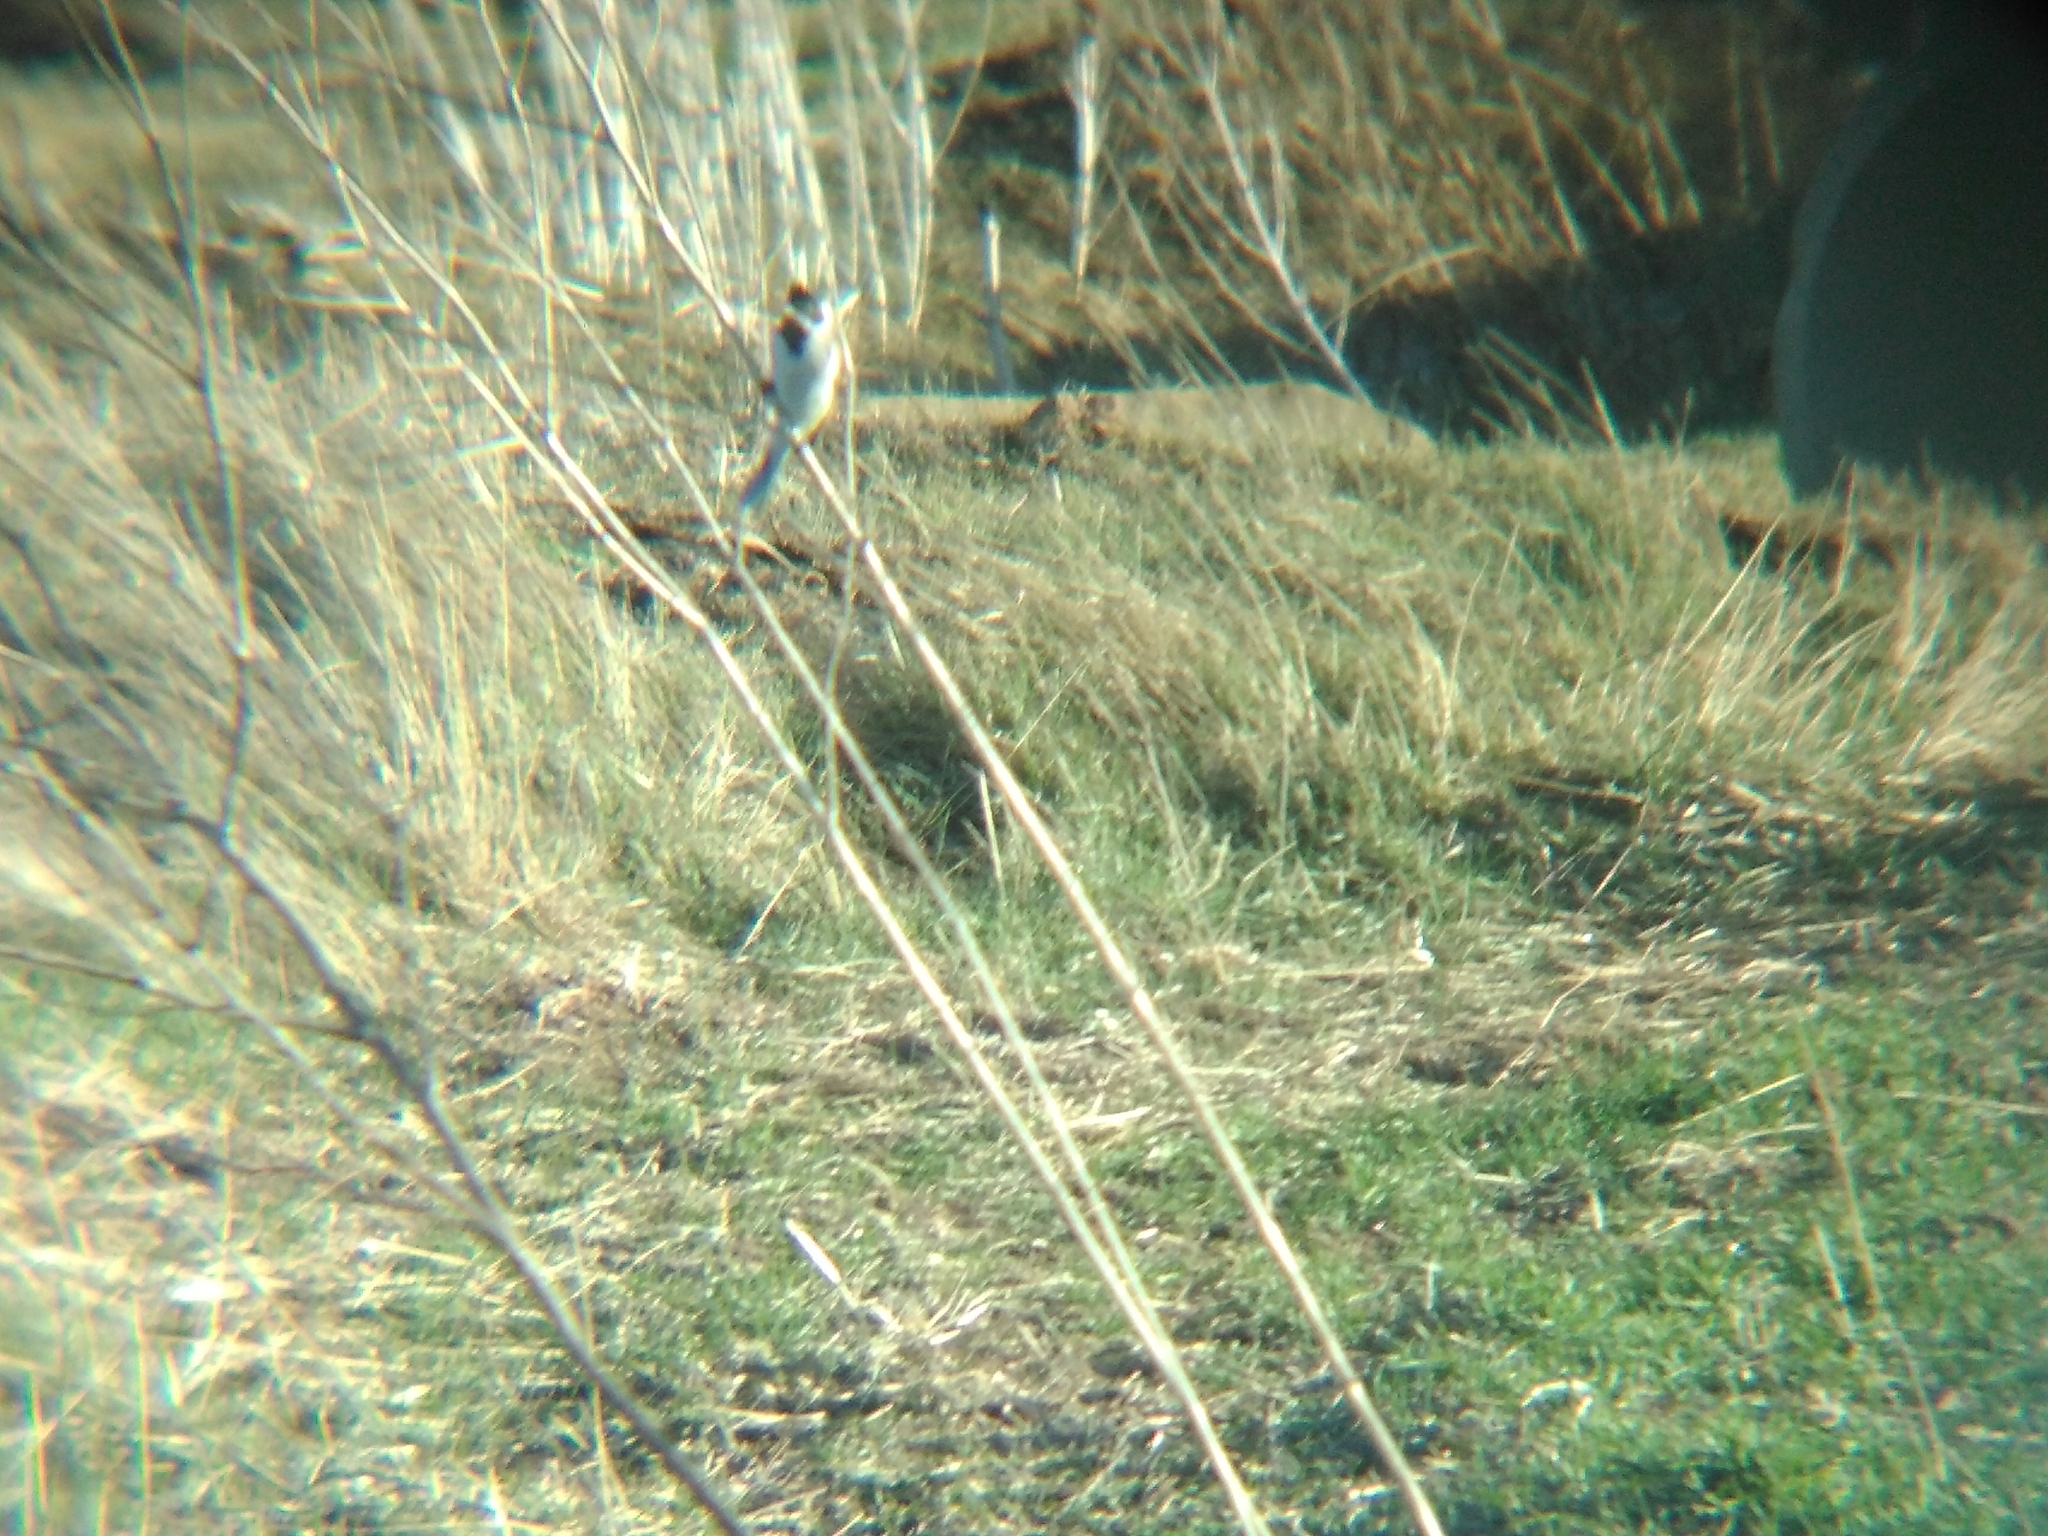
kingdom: Animalia
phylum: Chordata
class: Aves
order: Passeriformes
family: Emberizidae
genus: Emberiza
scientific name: Emberiza schoeniclus
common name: Reed bunting
